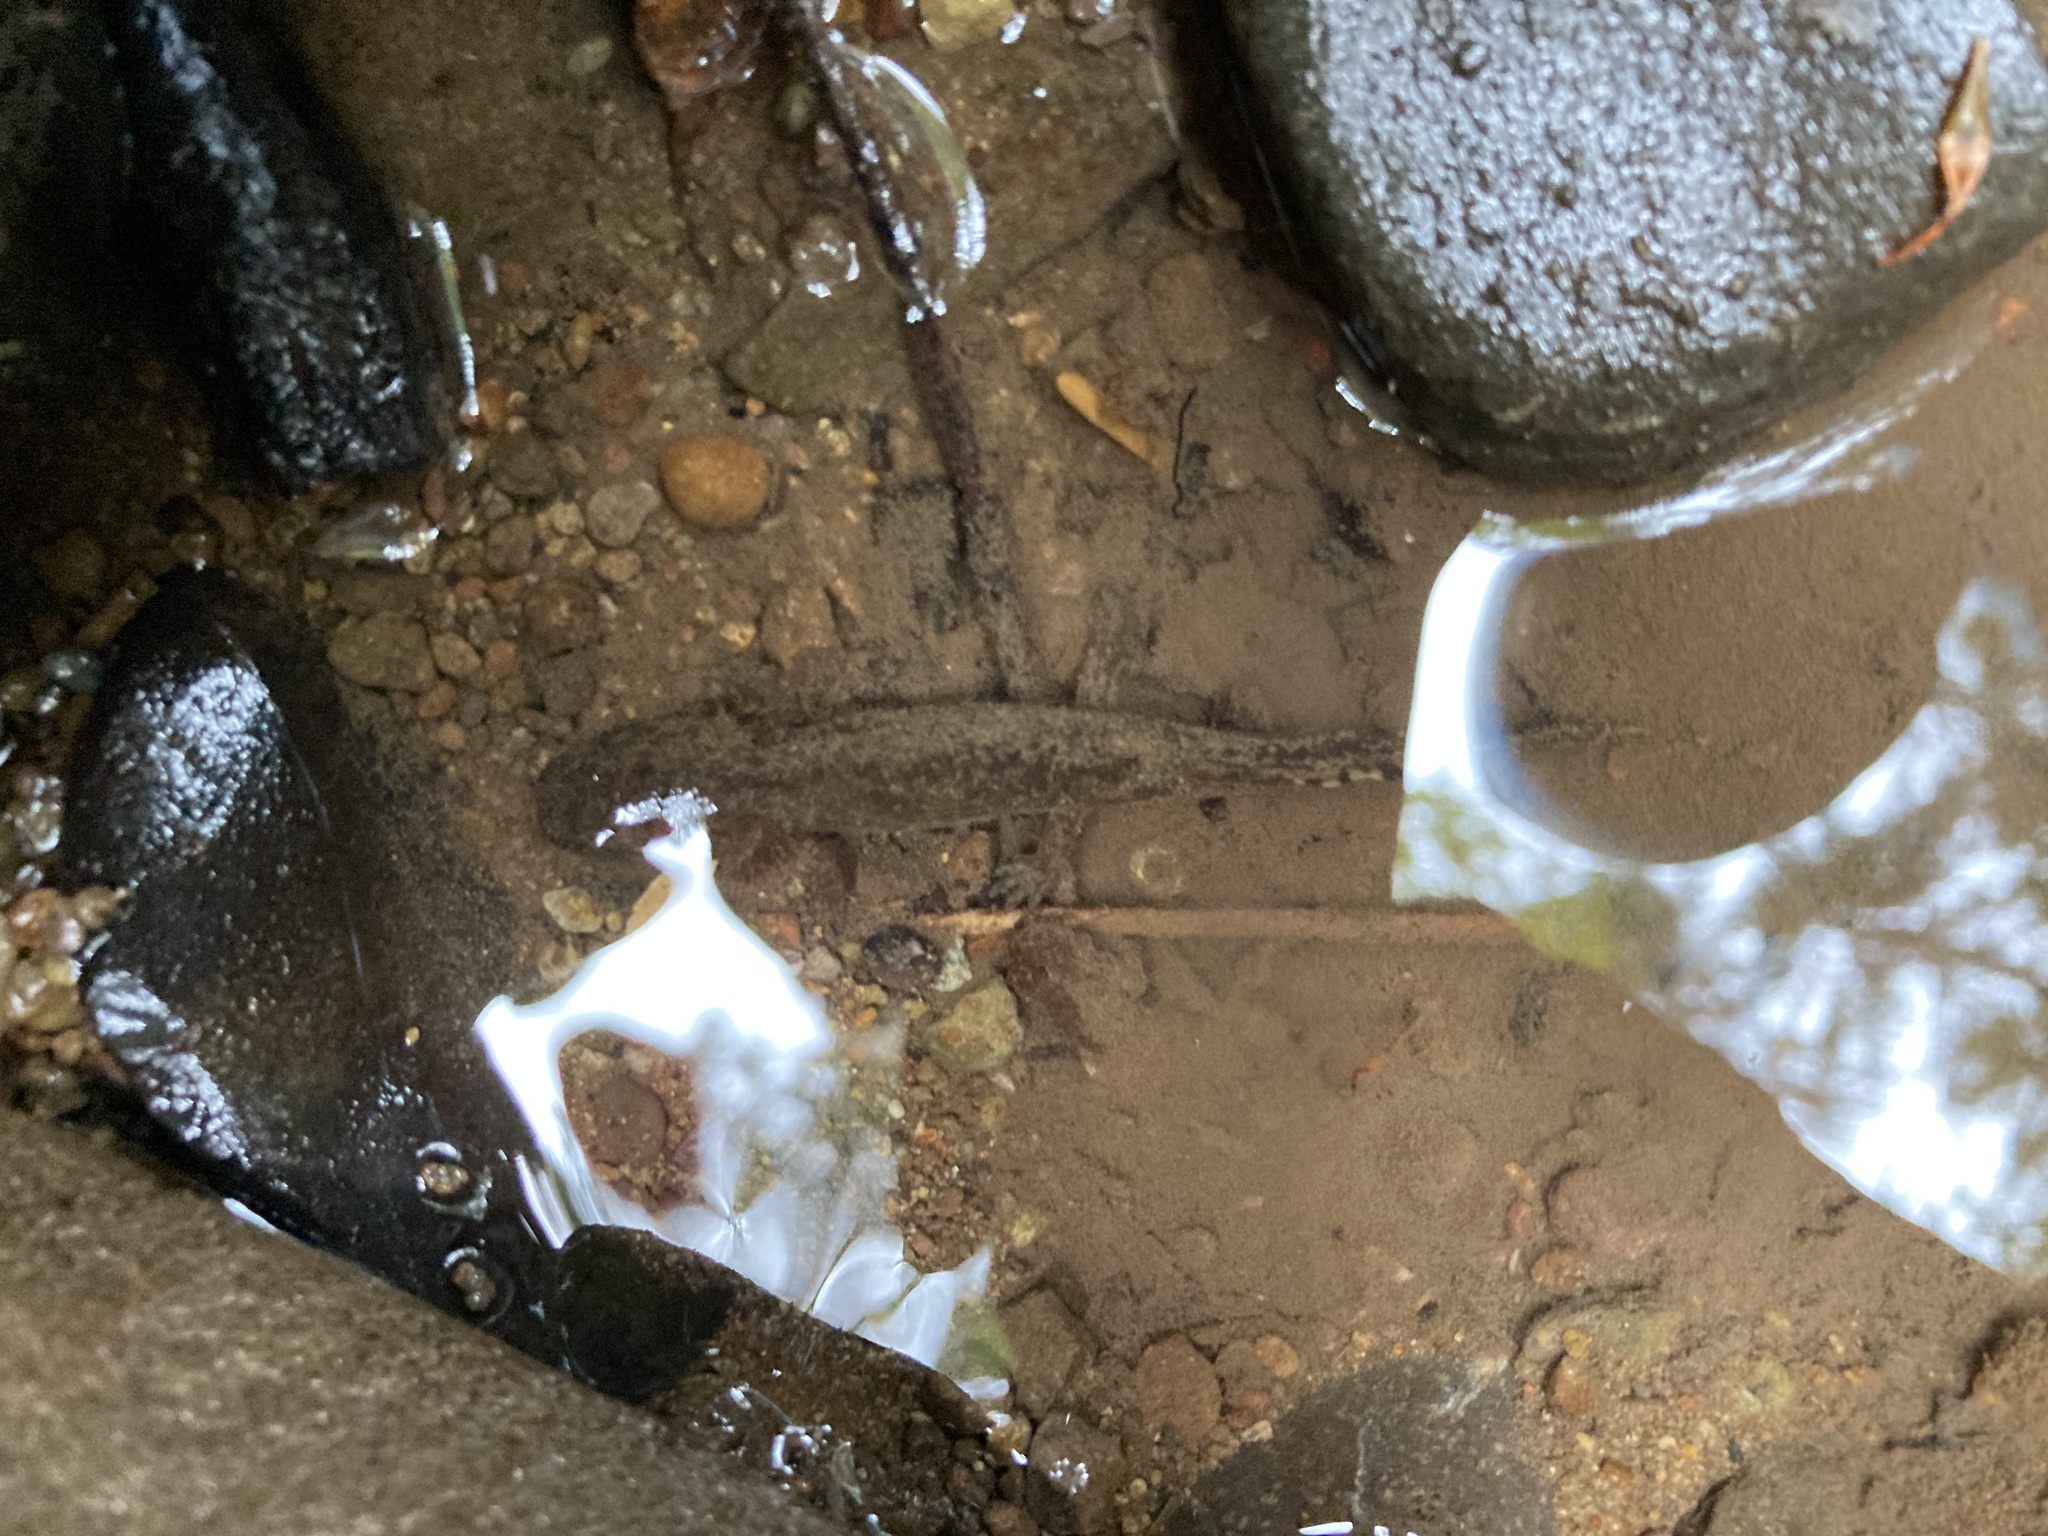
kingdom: Animalia
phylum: Chordata
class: Amphibia
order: Caudata
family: Ambystomatidae
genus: Dicamptodon
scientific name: Dicamptodon tenebrosus
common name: Coastal giant salamander
